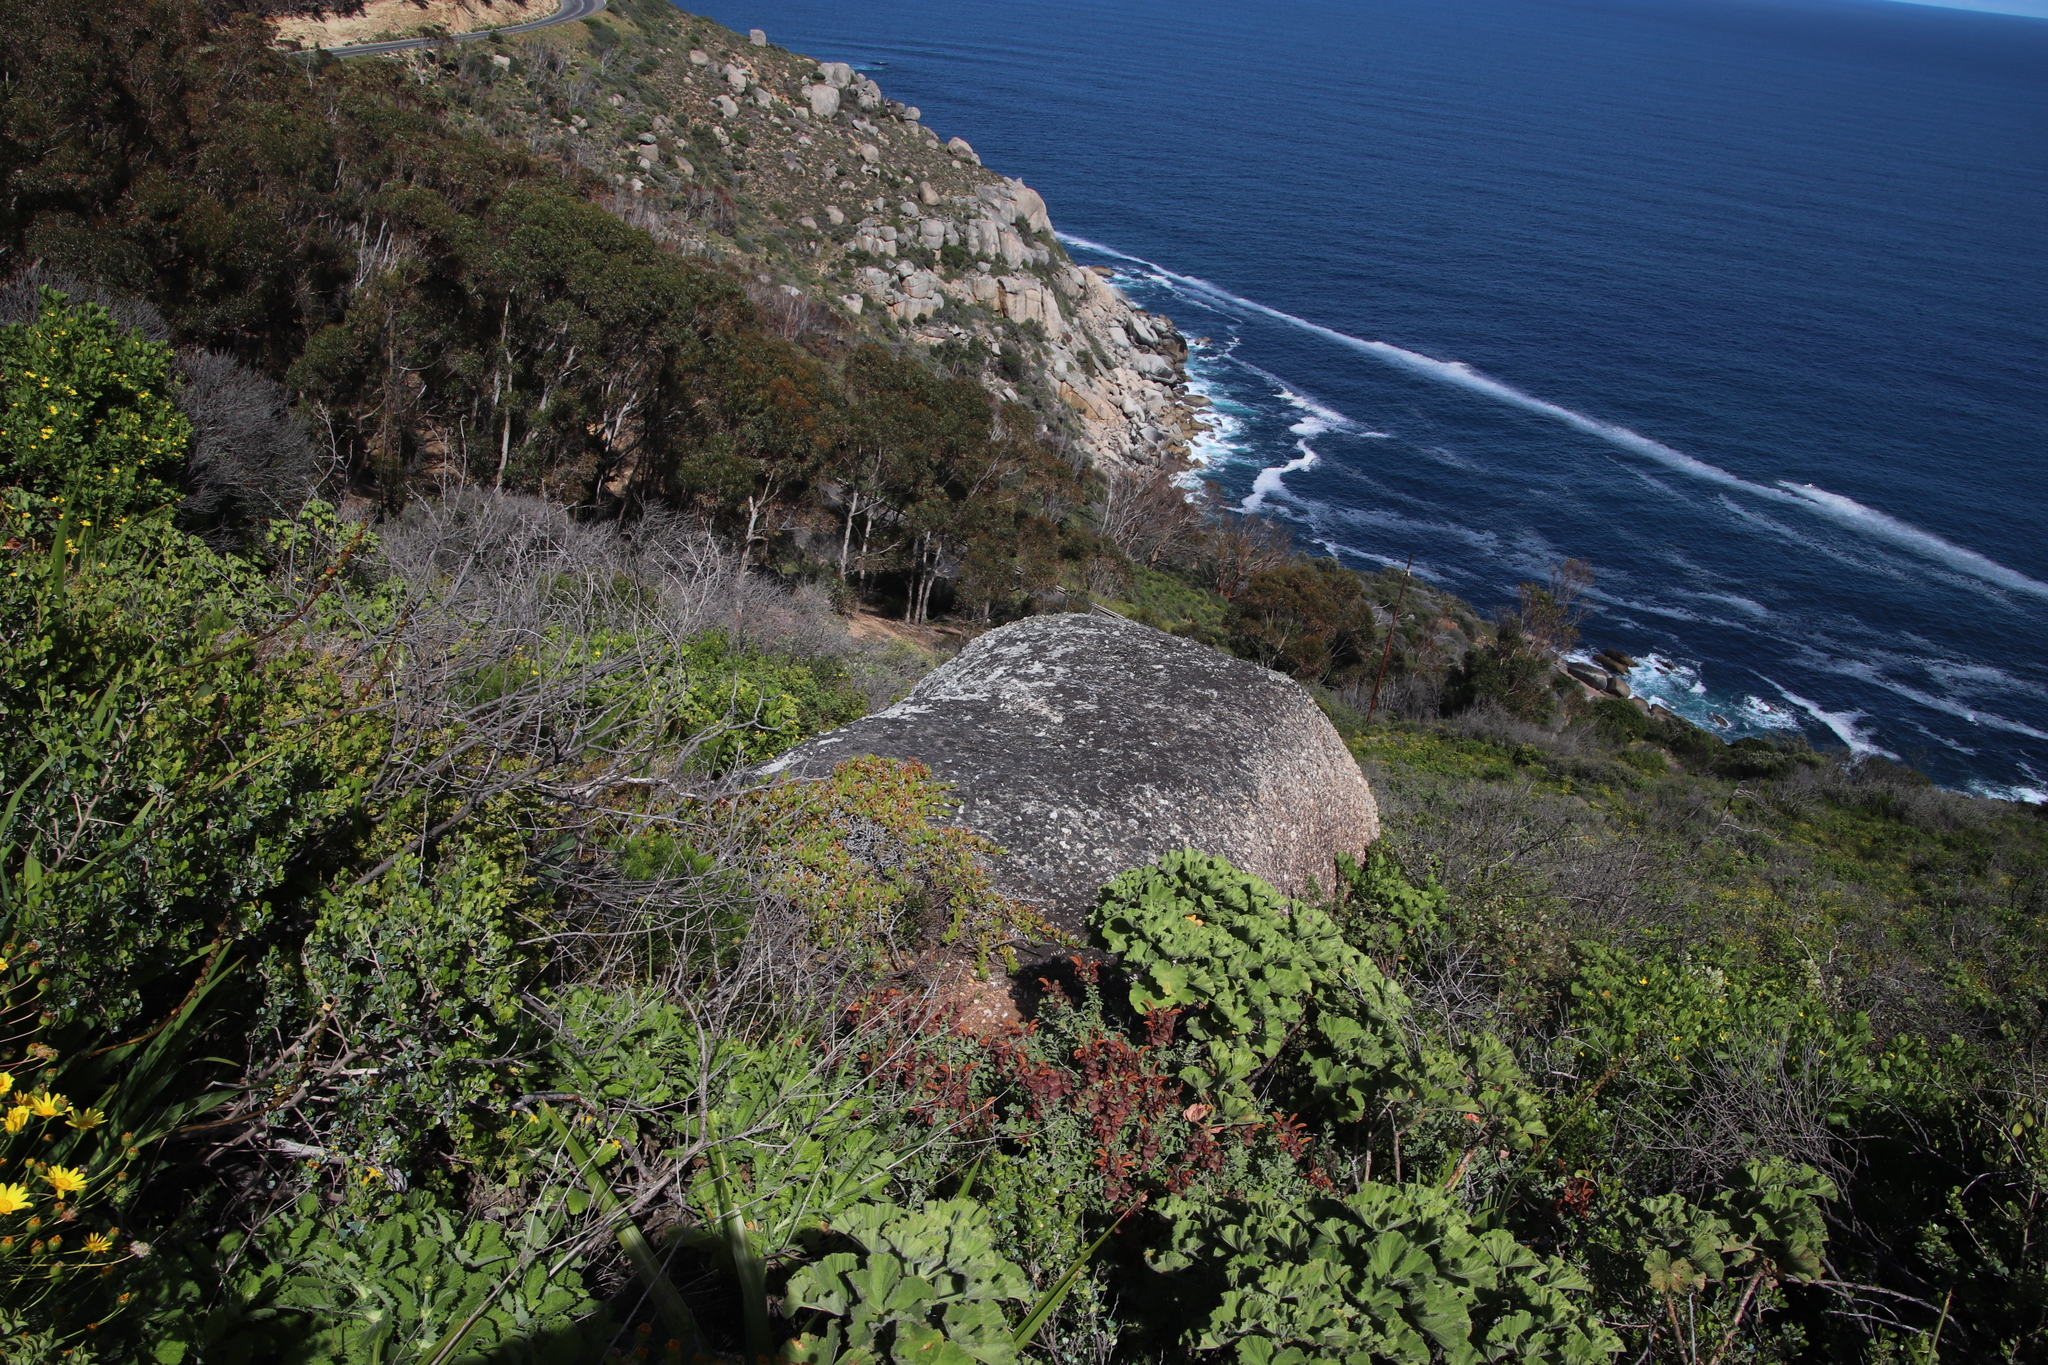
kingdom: Plantae
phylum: Tracheophyta
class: Magnoliopsida
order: Caryophyllales
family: Aizoaceae
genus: Amphibolia
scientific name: Amphibolia laevis
